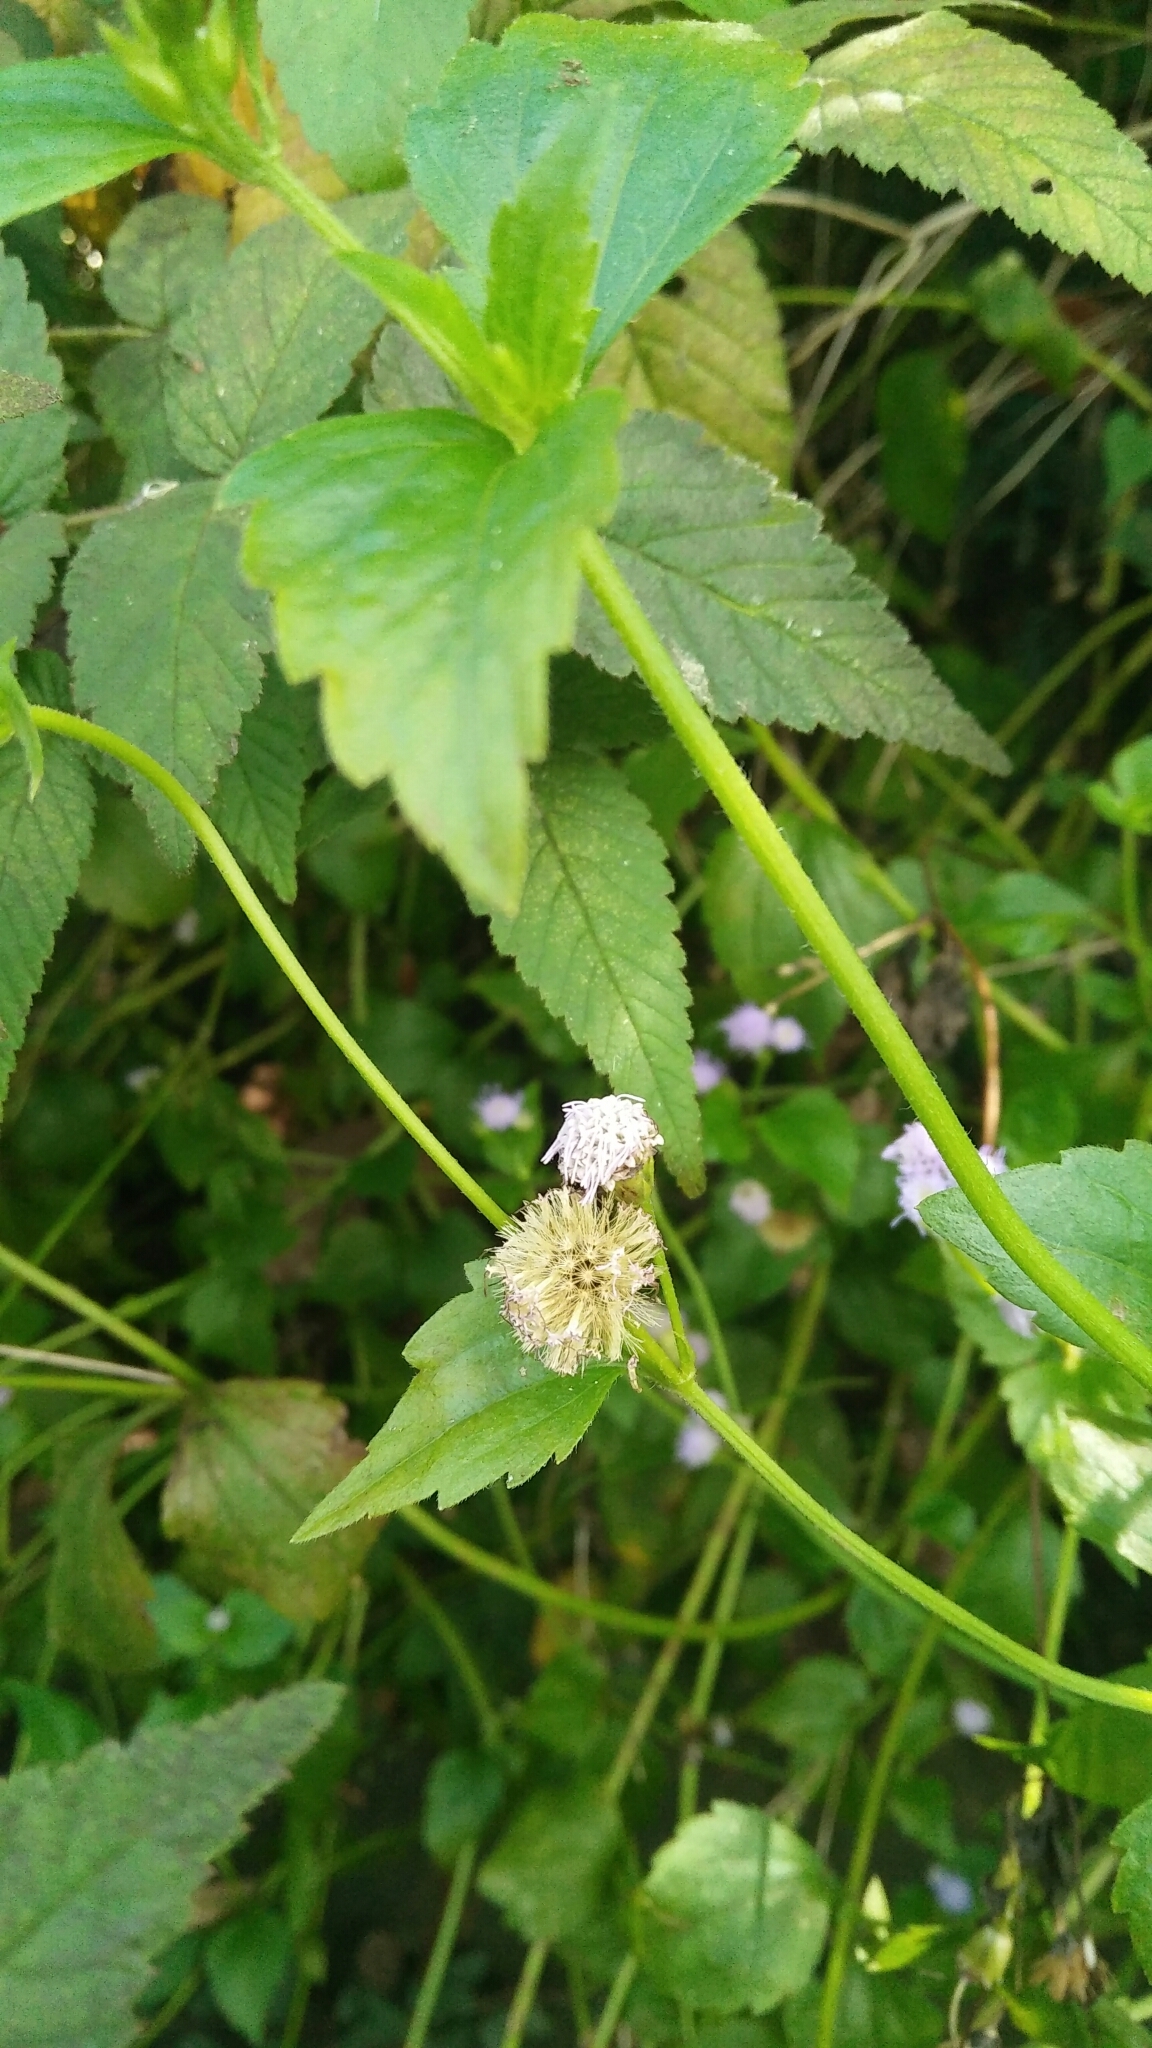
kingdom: Plantae
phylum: Tracheophyta
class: Magnoliopsida
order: Asterales
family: Asteraceae
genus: Praxelis
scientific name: Praxelis clematidea
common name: Praxelis
